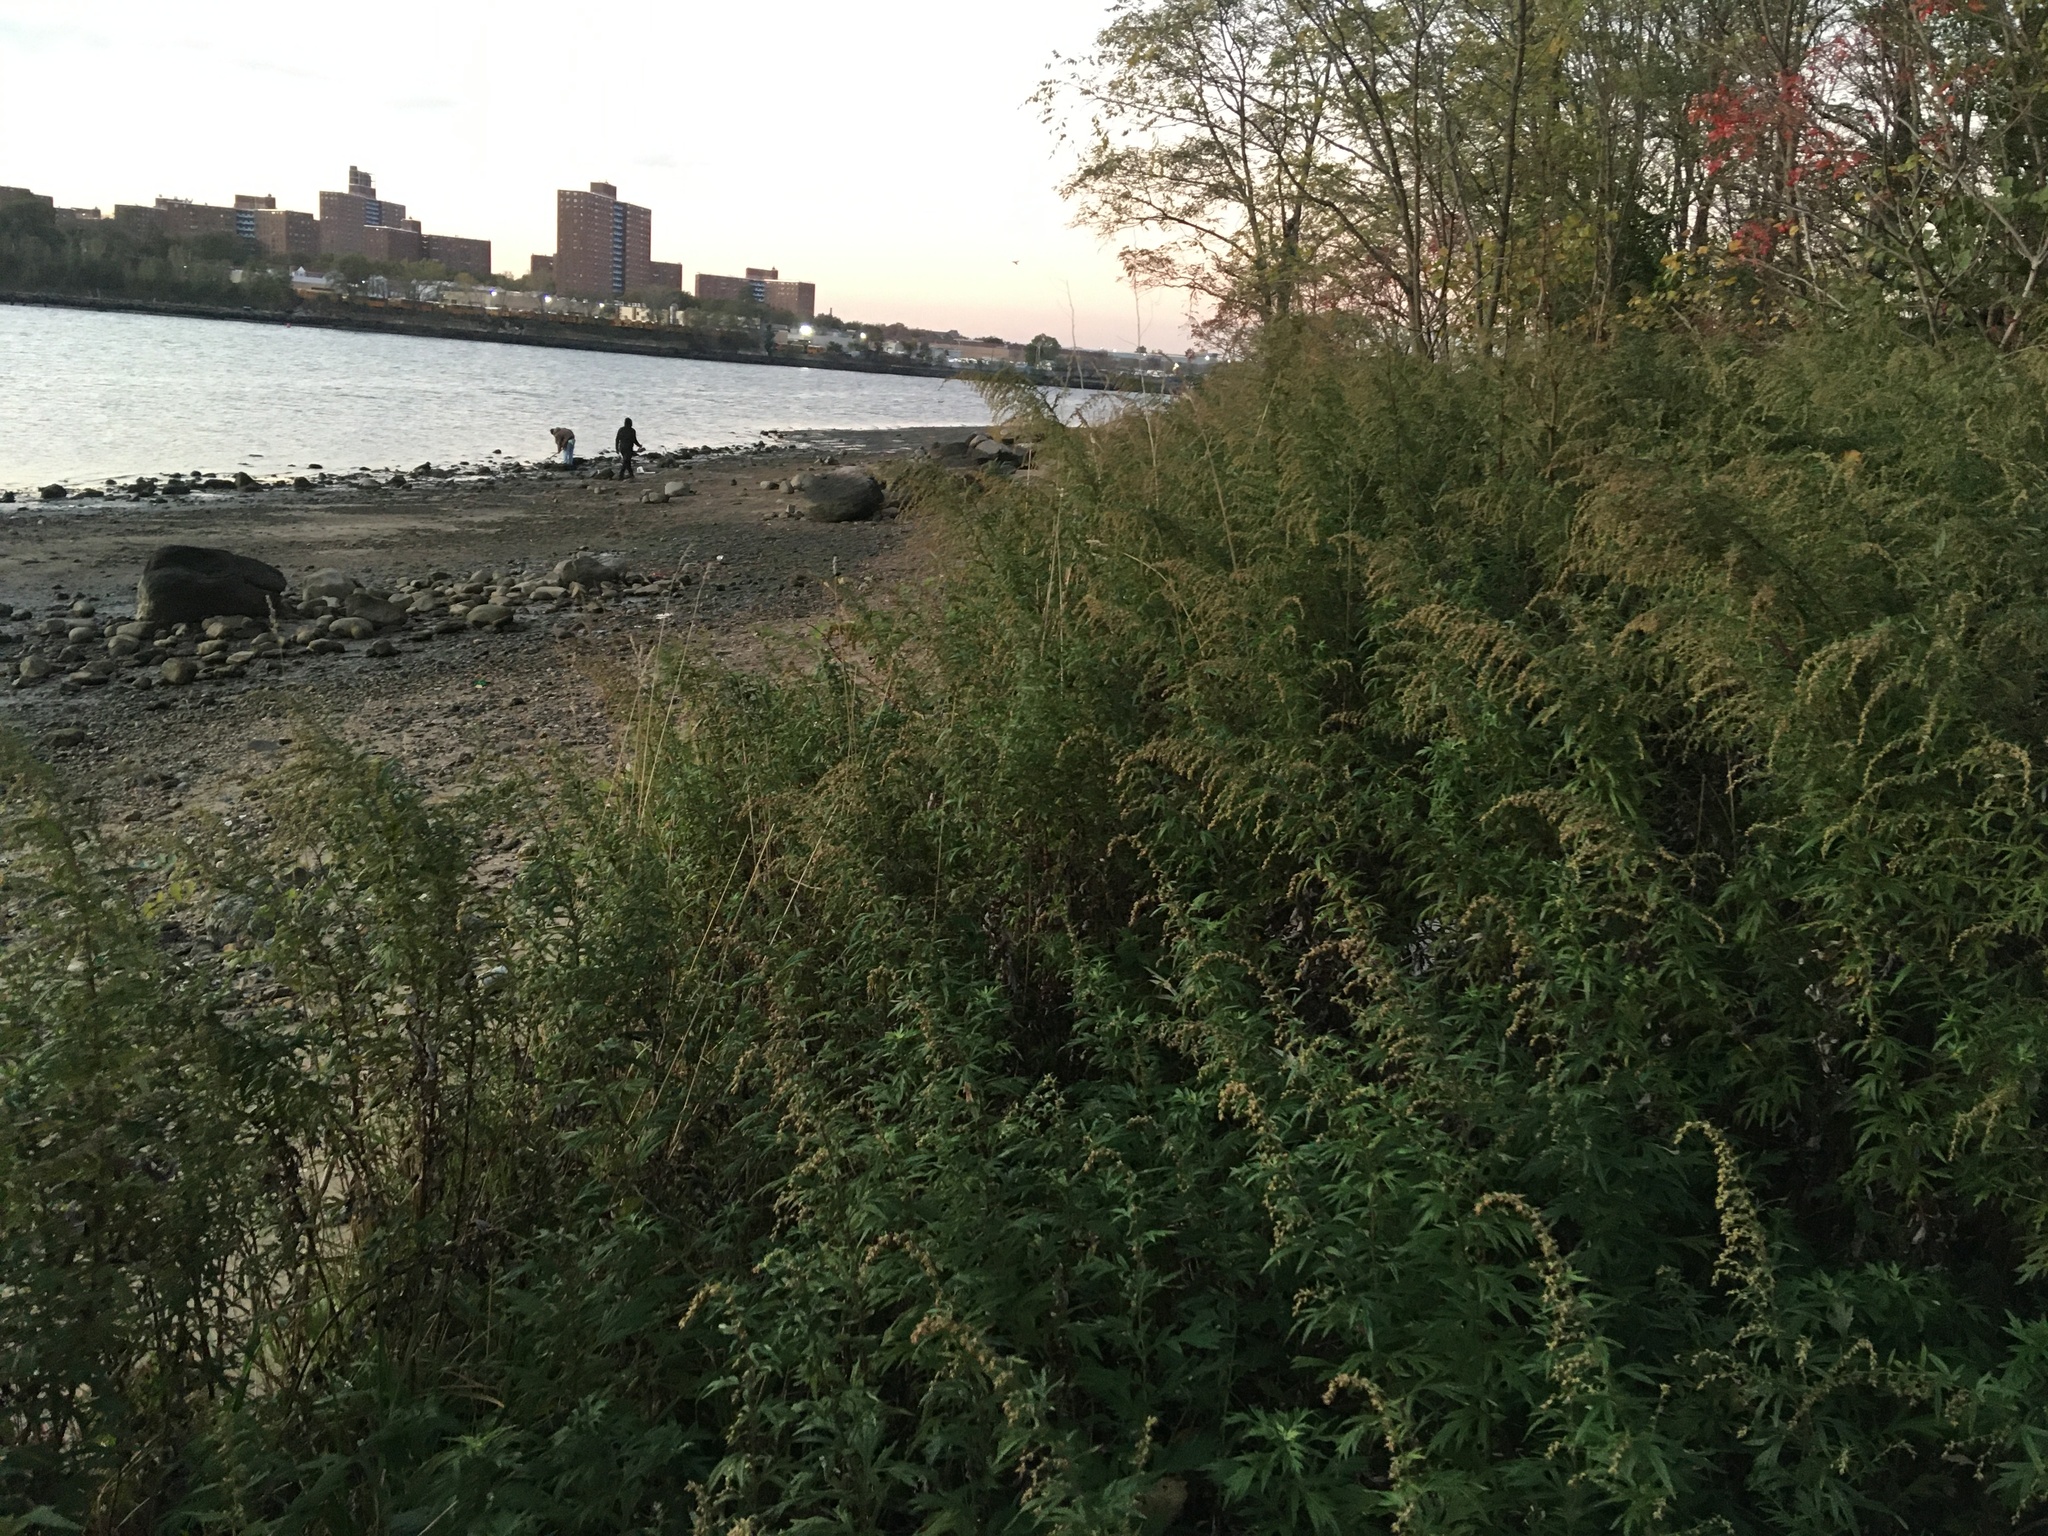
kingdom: Plantae
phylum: Tracheophyta
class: Magnoliopsida
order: Asterales
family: Asteraceae
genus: Artemisia
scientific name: Artemisia vulgaris
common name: Mugwort
